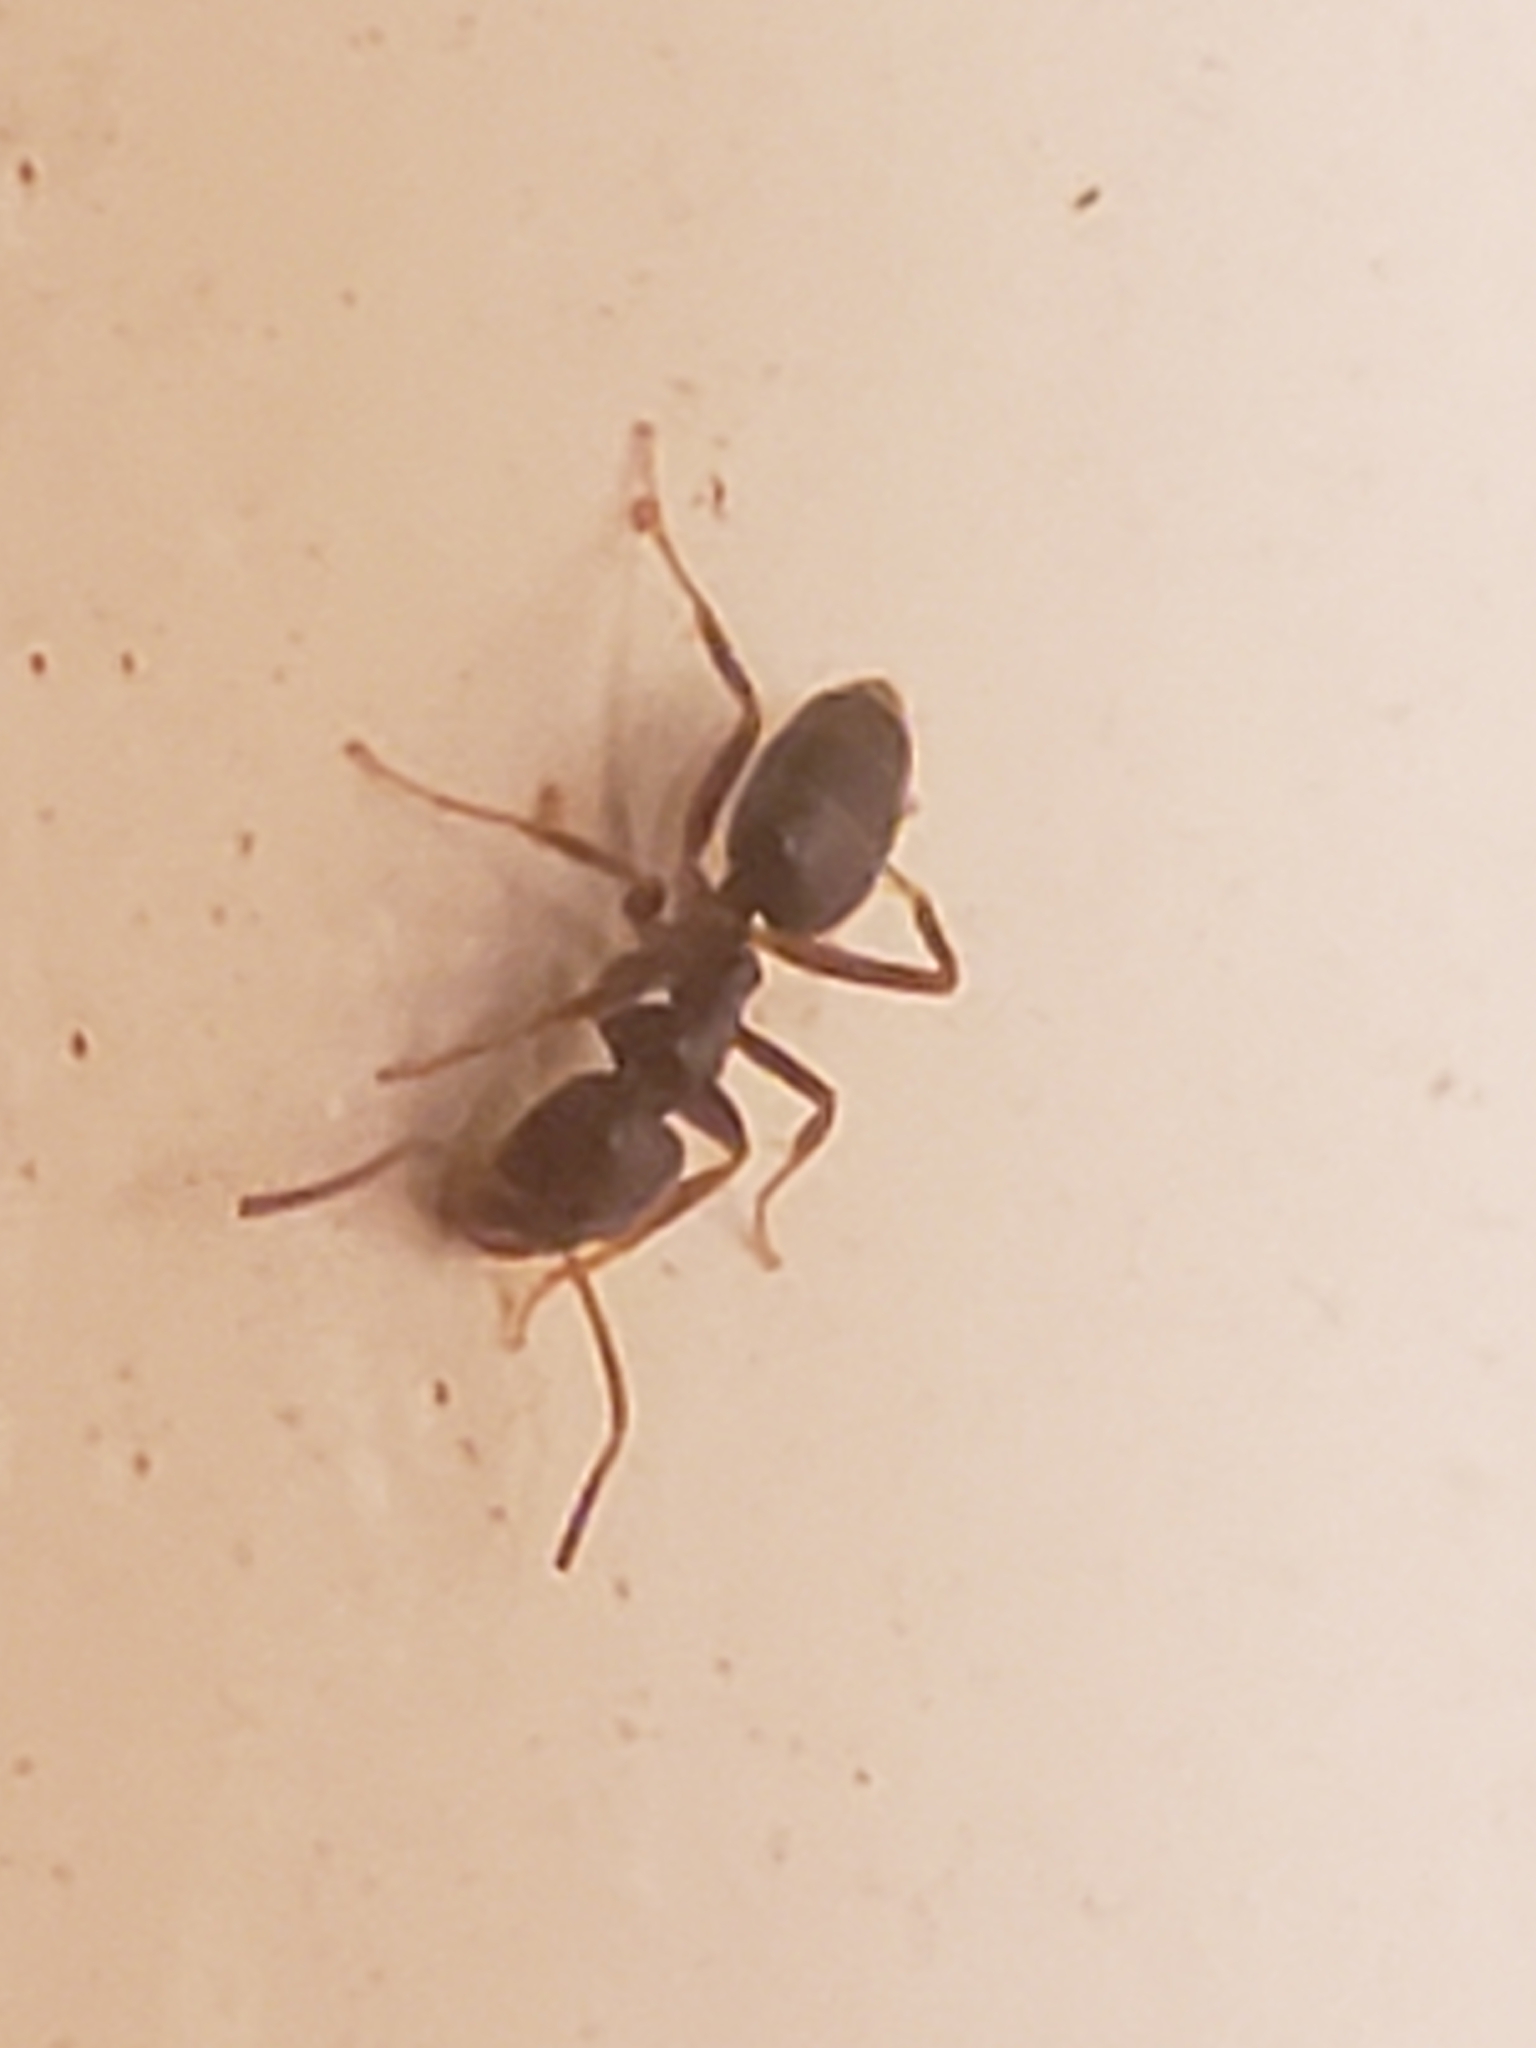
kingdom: Animalia
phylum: Arthropoda
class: Insecta
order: Hymenoptera
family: Formicidae
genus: Tapinoma
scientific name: Tapinoma sessile
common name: Odorous house ant
